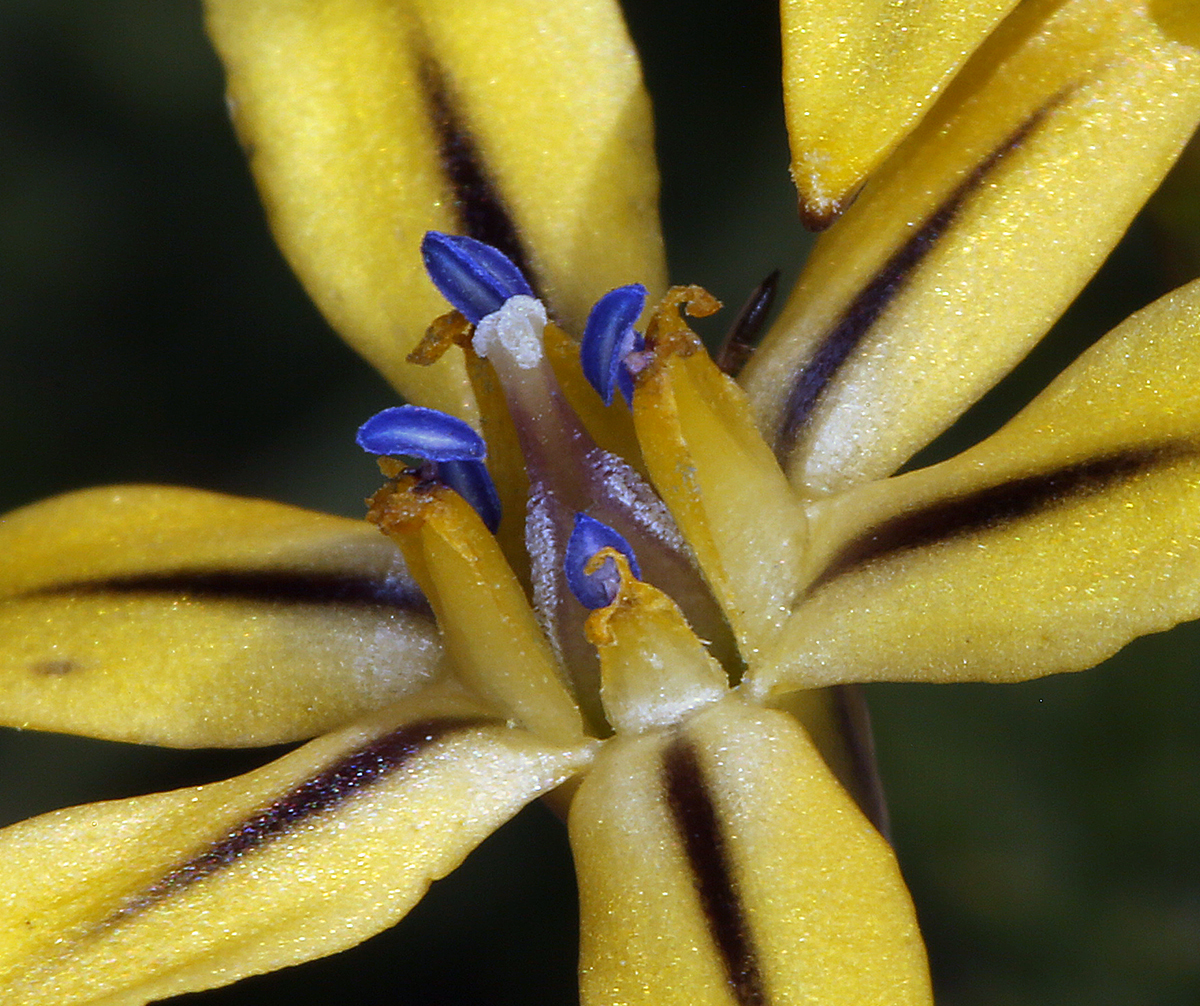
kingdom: Plantae
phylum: Tracheophyta
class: Liliopsida
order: Asparagales
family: Asparagaceae
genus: Triteleia
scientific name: Triteleia ixioides
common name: Yellow-brodiaea
